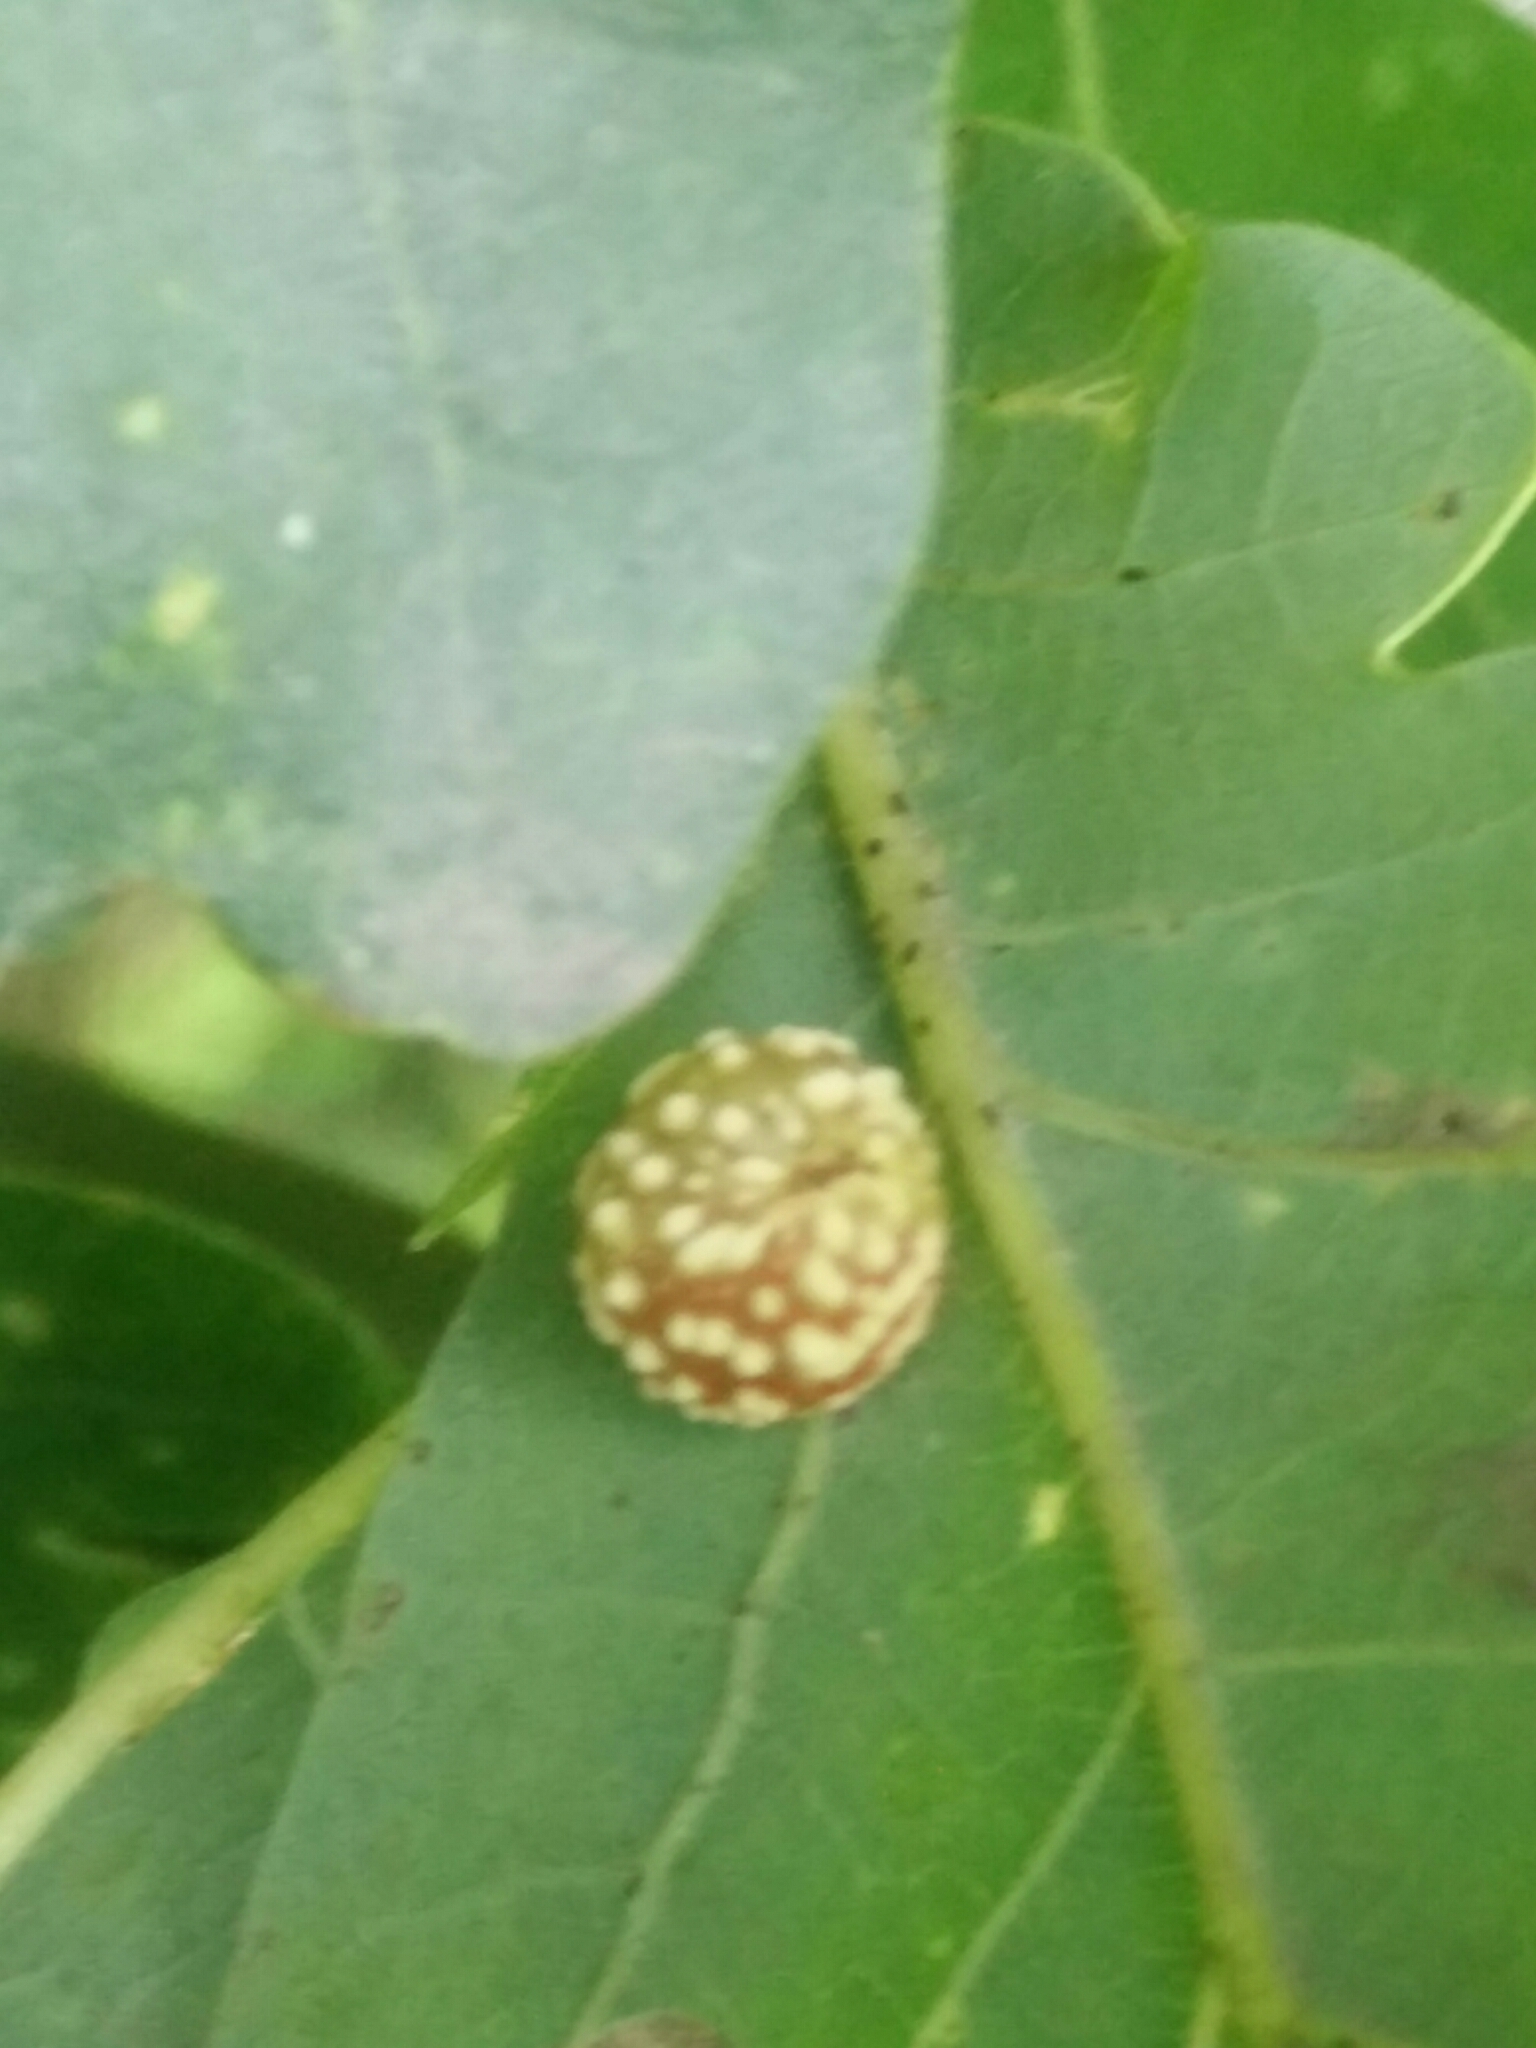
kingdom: Animalia
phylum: Arthropoda
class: Insecta
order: Hymenoptera
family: Cynipidae
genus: Cynips
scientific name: Cynips longiventris
